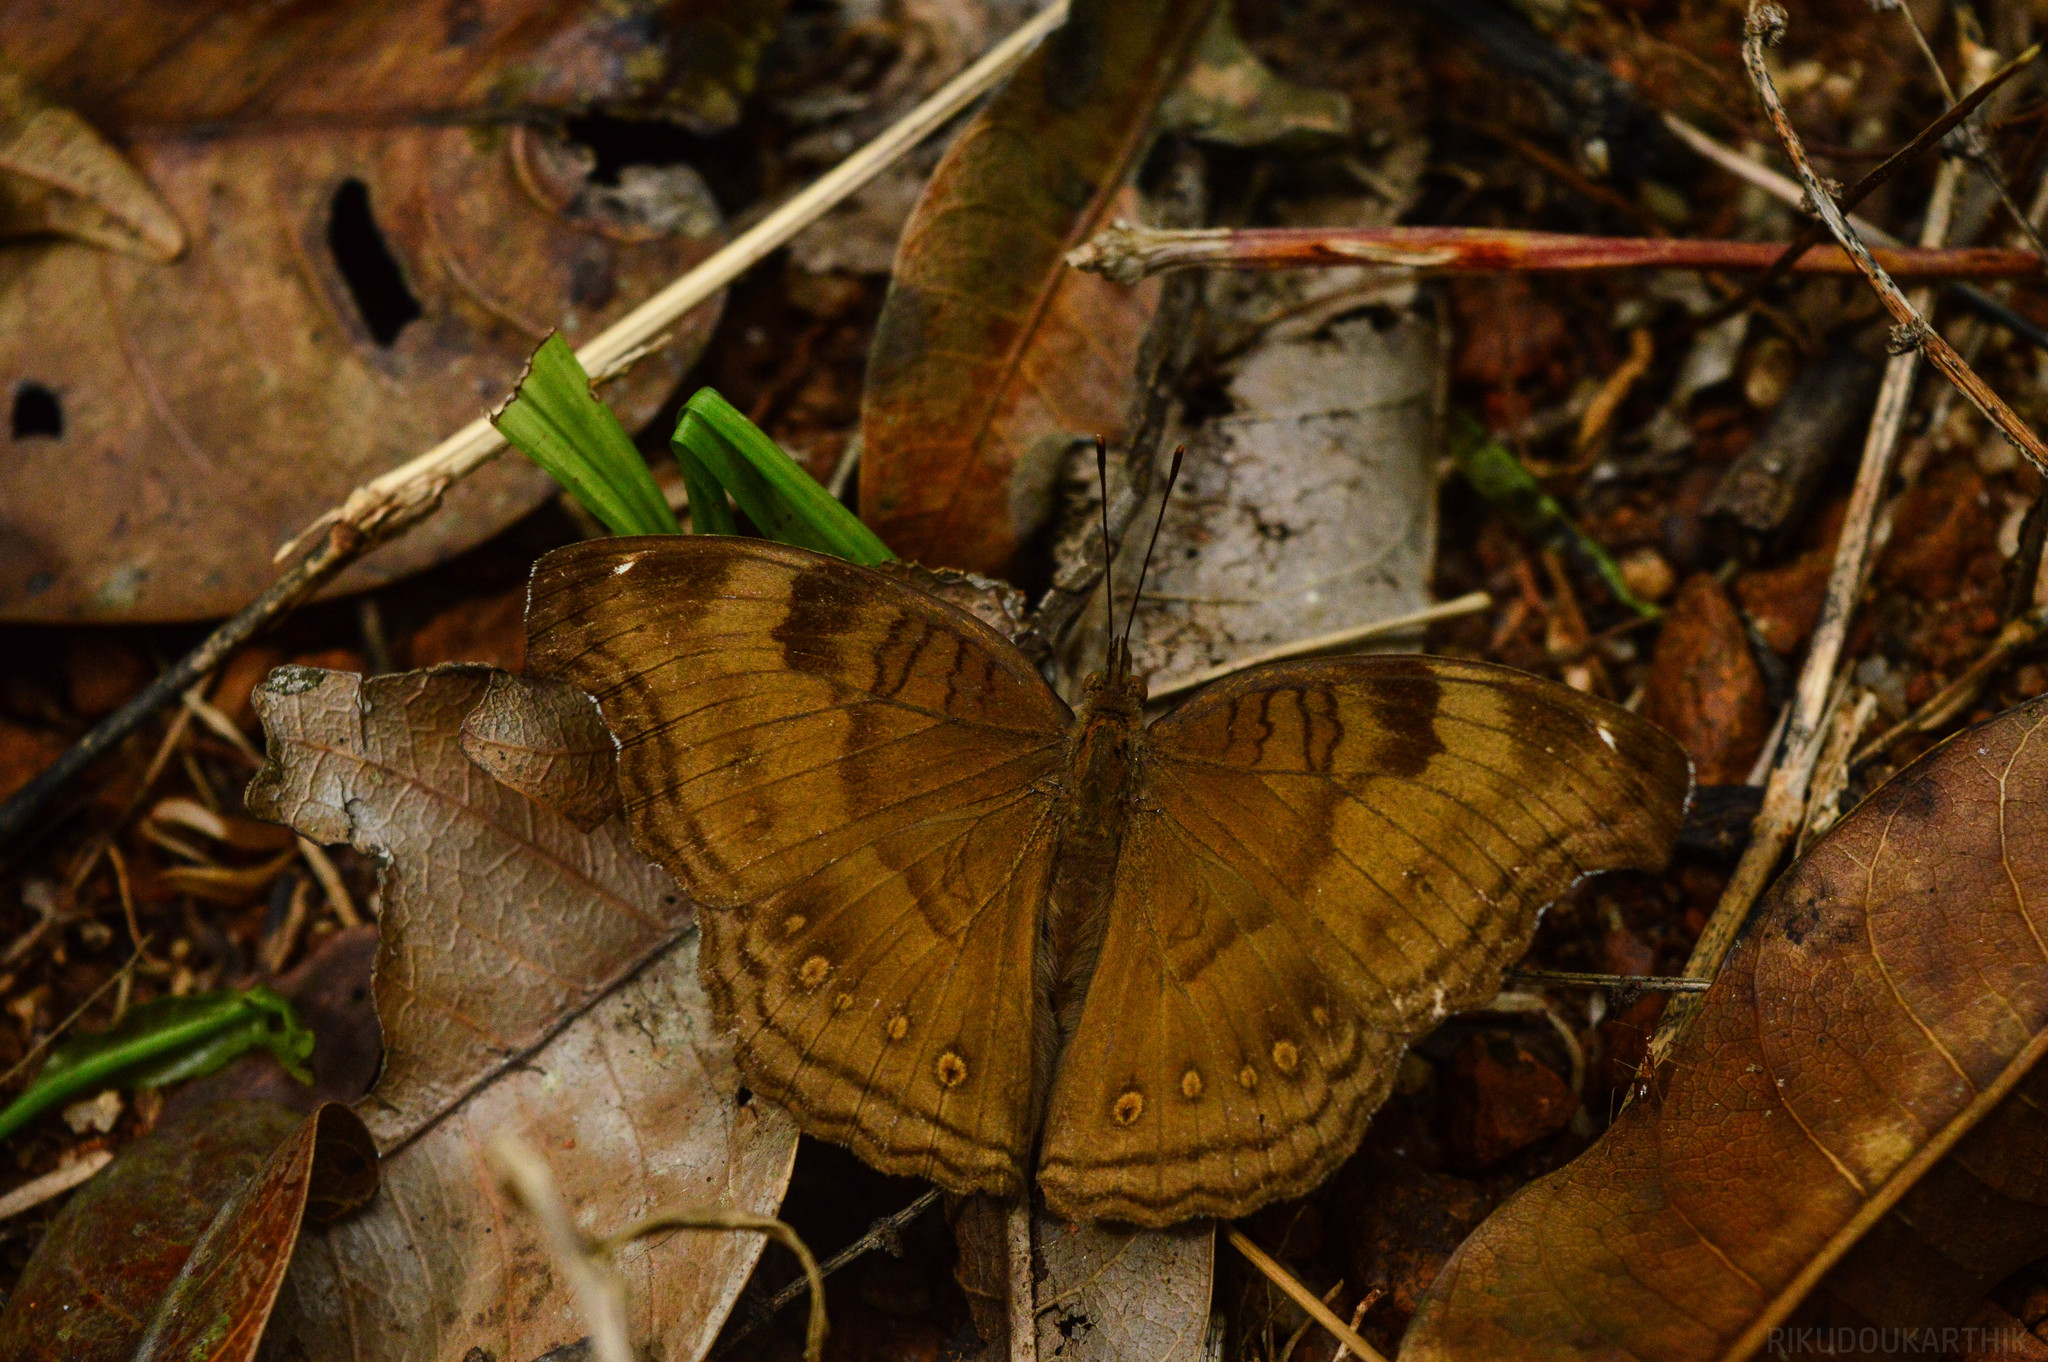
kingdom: Animalia
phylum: Arthropoda
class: Insecta
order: Lepidoptera
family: Nymphalidae
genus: Junonia
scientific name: Junonia iphita
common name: Chocolate pansy
